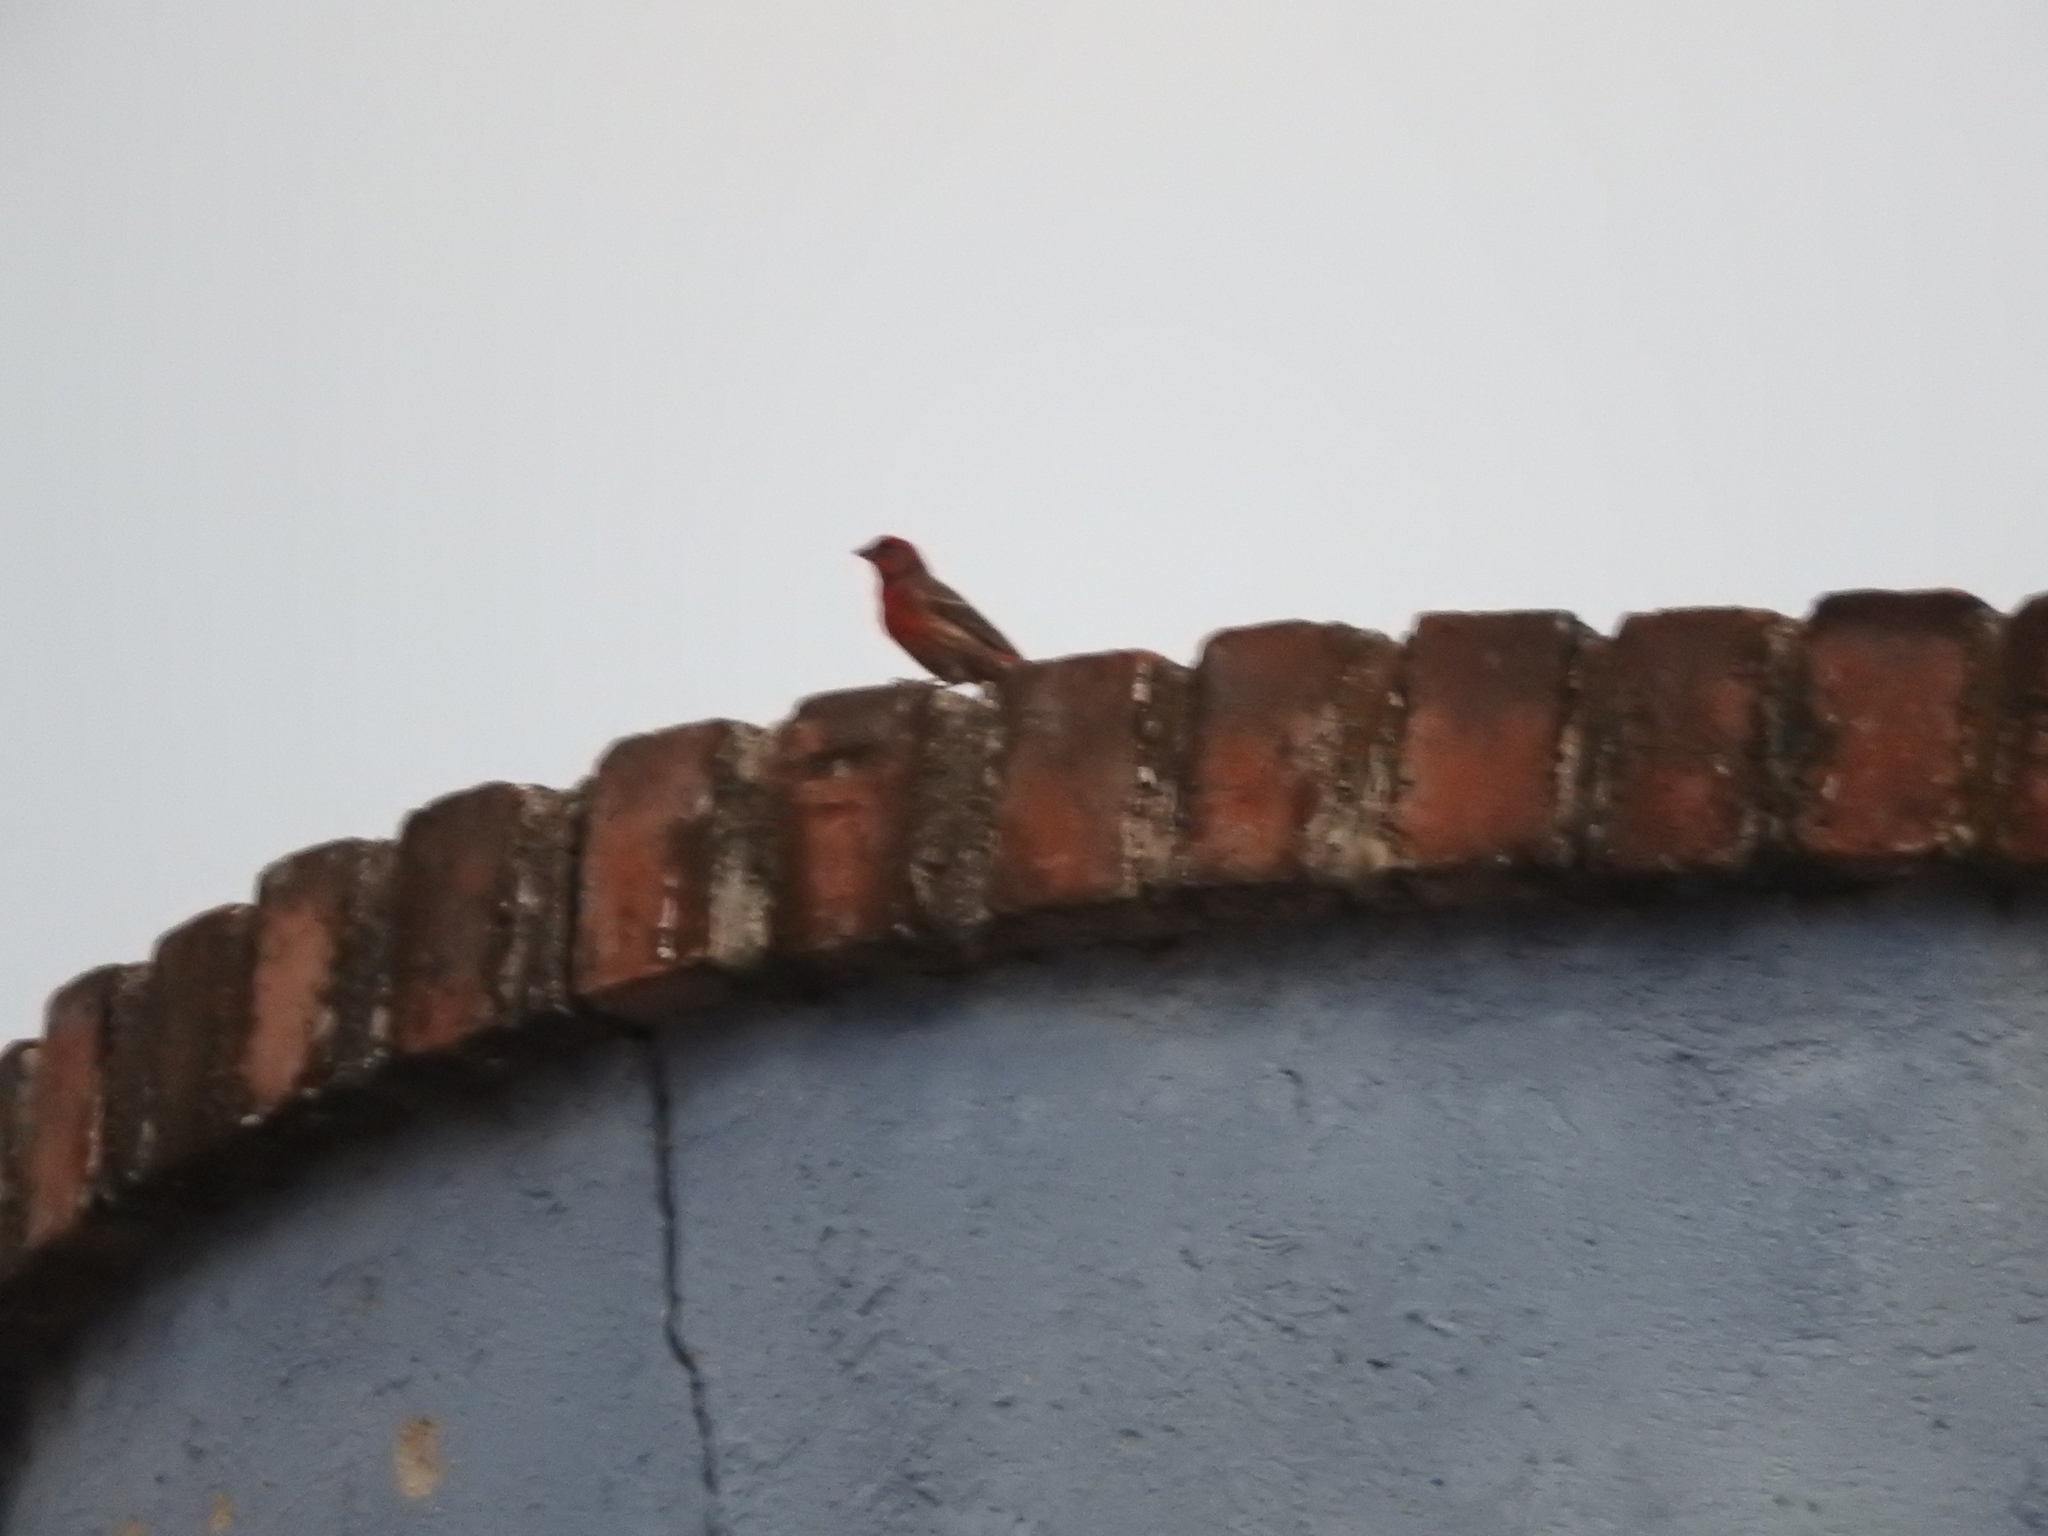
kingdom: Animalia
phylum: Chordata
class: Aves
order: Passeriformes
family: Fringillidae
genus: Haemorhous
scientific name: Haemorhous mexicanus
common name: House finch
